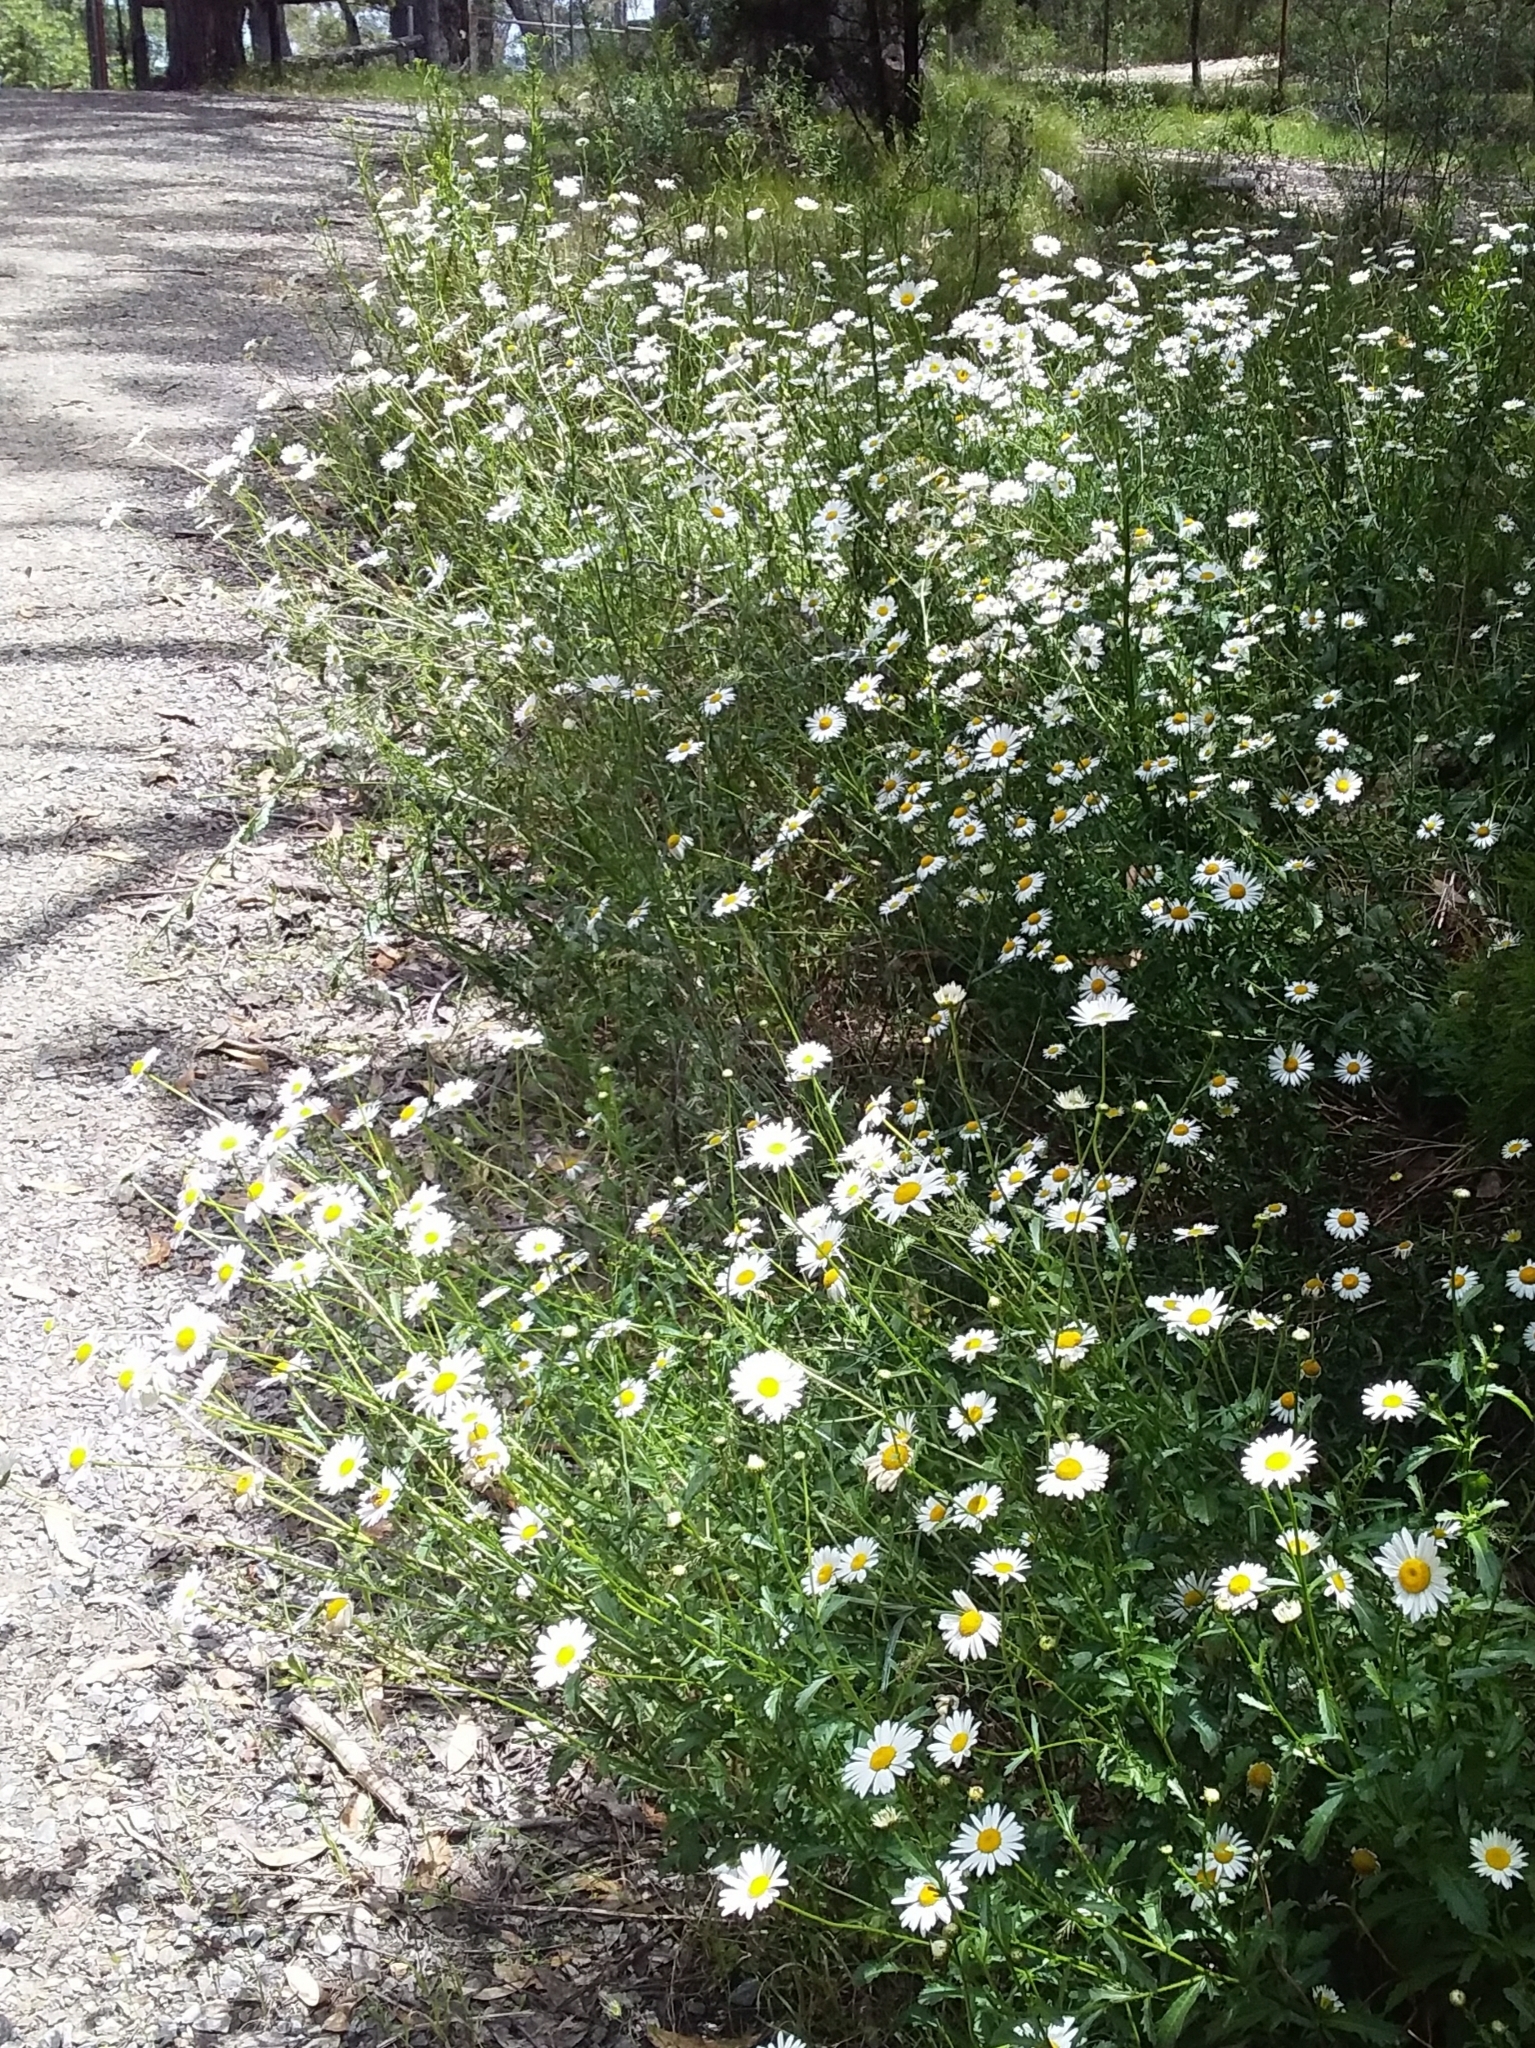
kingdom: Plantae
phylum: Tracheophyta
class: Magnoliopsida
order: Asterales
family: Asteraceae
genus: Leucanthemum
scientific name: Leucanthemum vulgare
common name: Oxeye daisy
